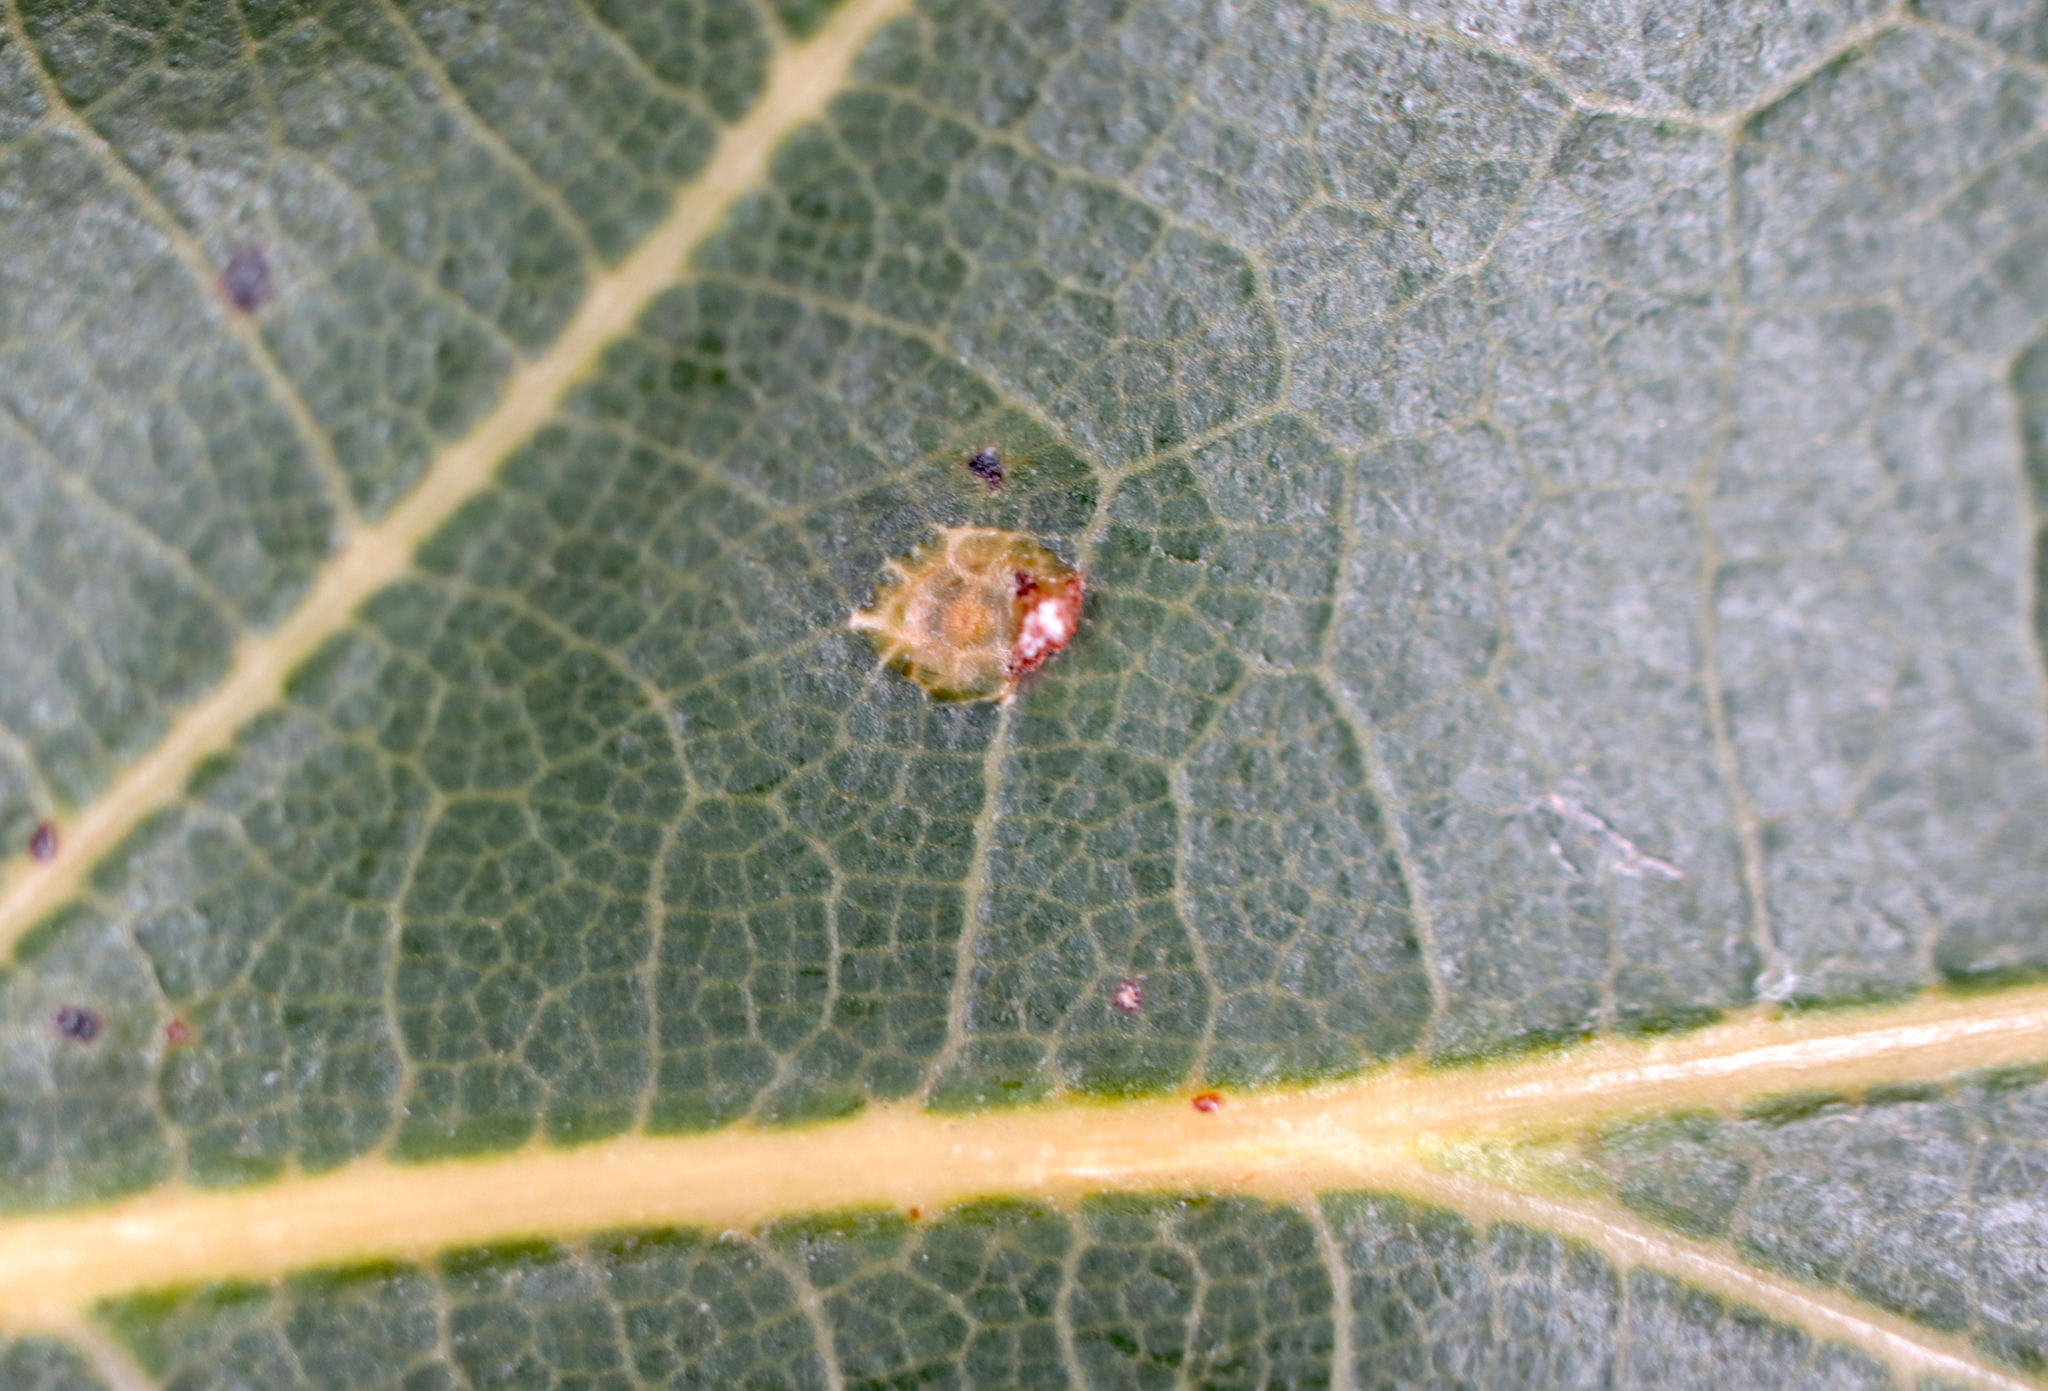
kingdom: Animalia
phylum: Arthropoda
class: Insecta
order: Diptera
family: Cecidomyiidae
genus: Polystepha
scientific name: Polystepha globosa
